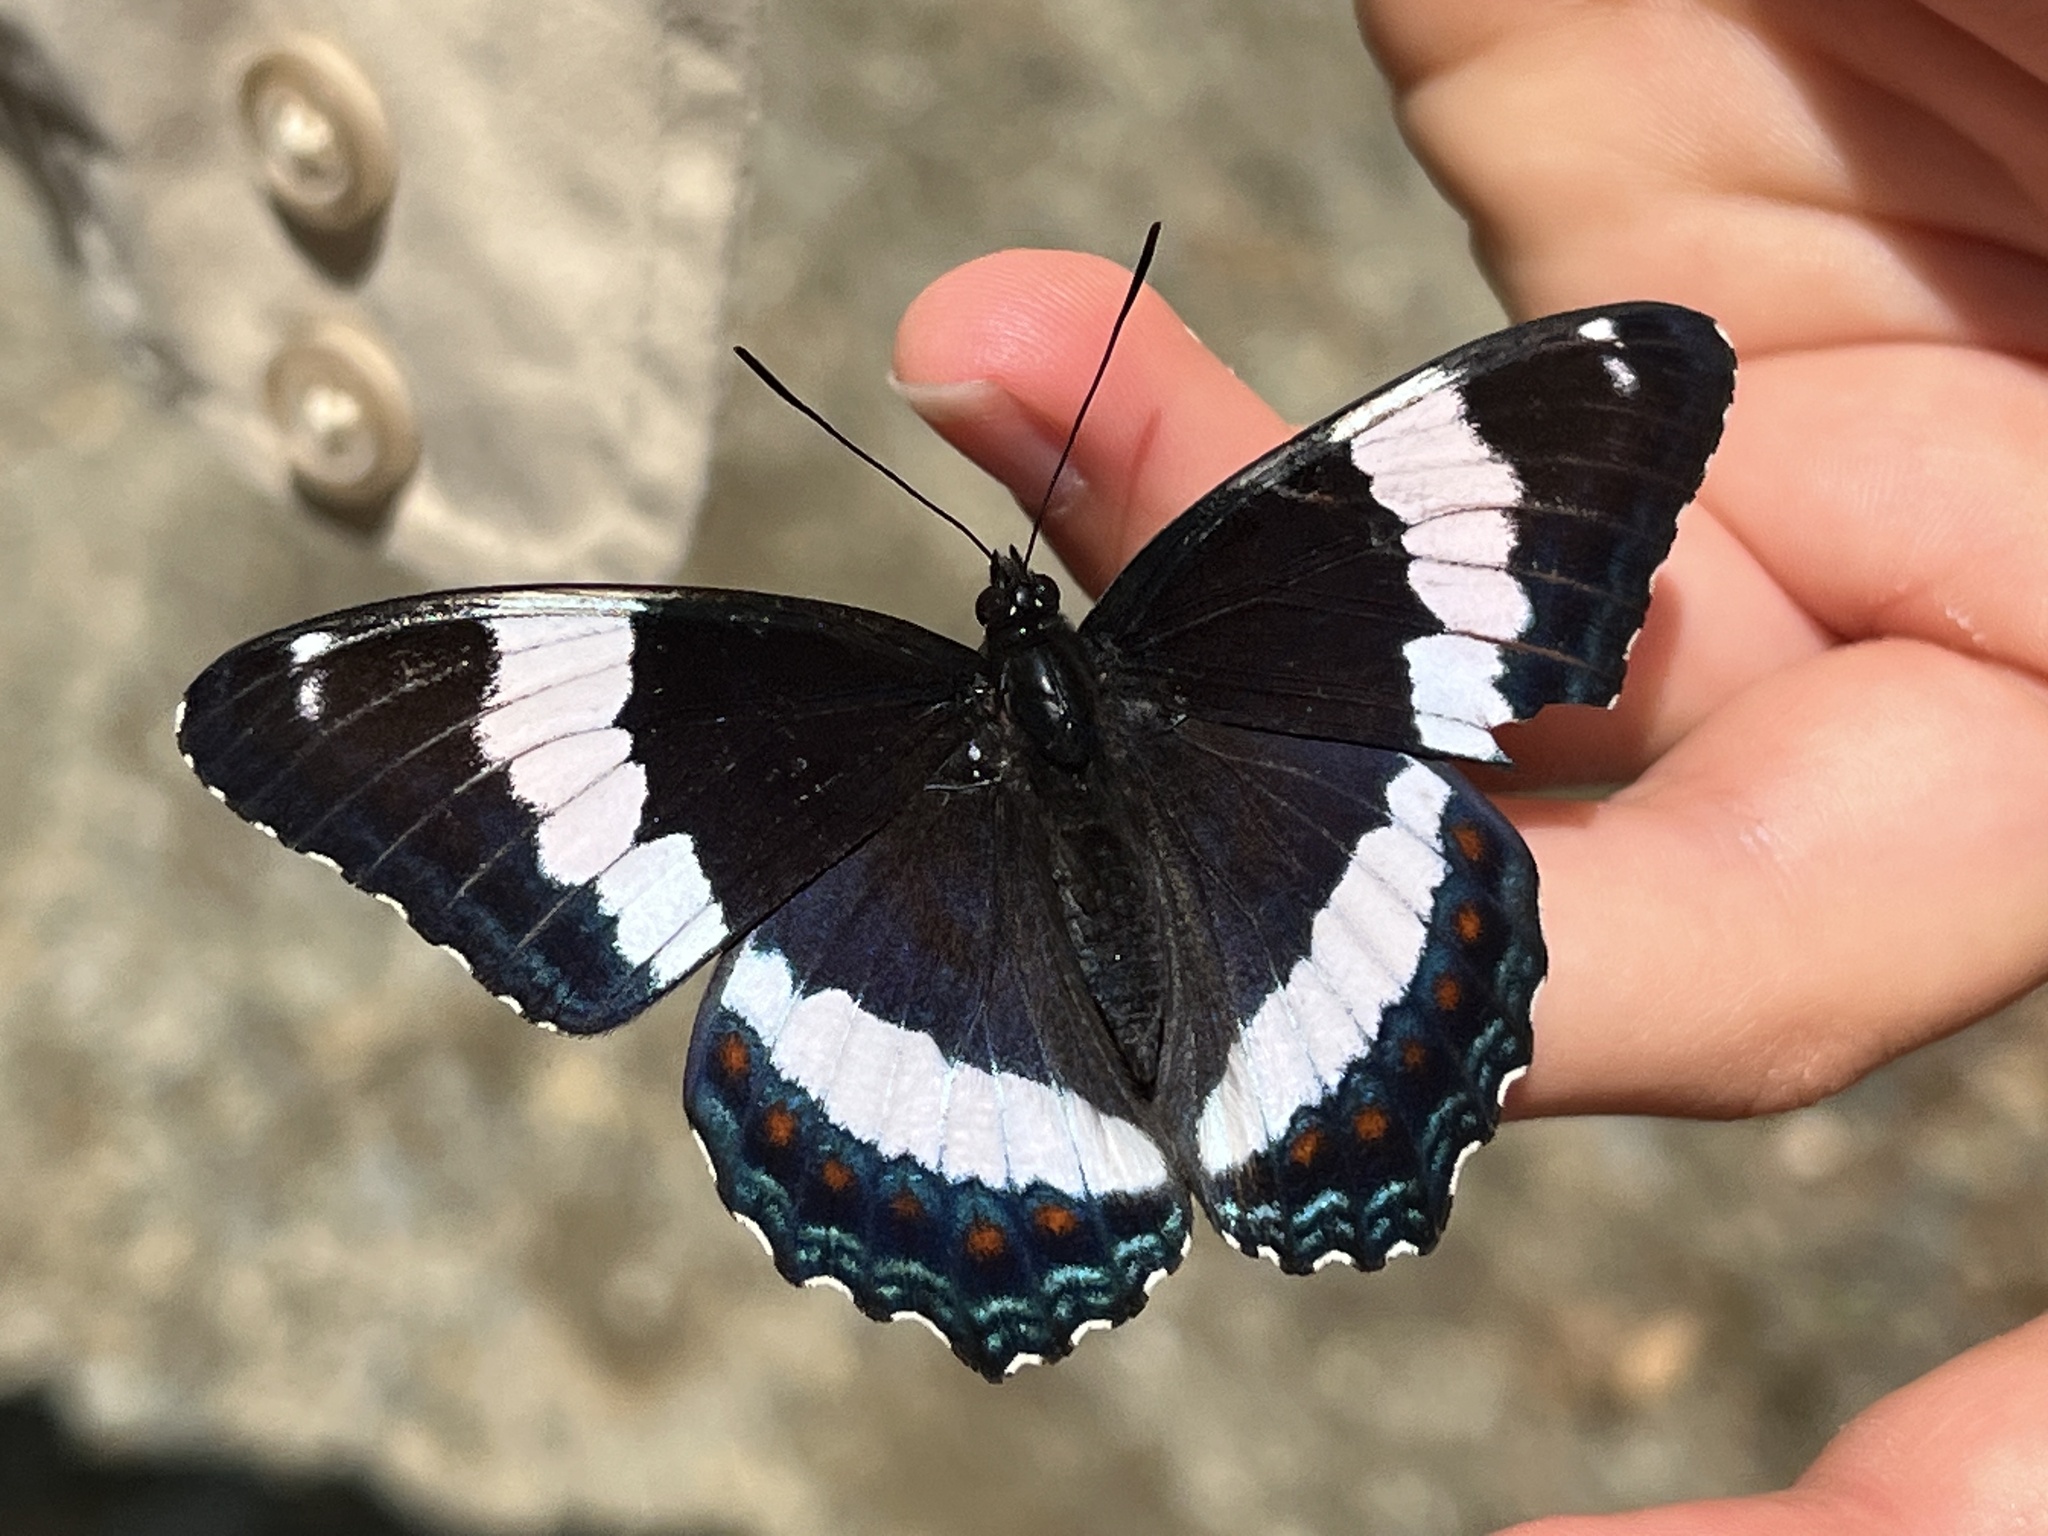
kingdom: Animalia
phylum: Arthropoda
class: Insecta
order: Lepidoptera
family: Nymphalidae
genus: Limenitis
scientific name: Limenitis arthemis
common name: Red-spotted admiral
